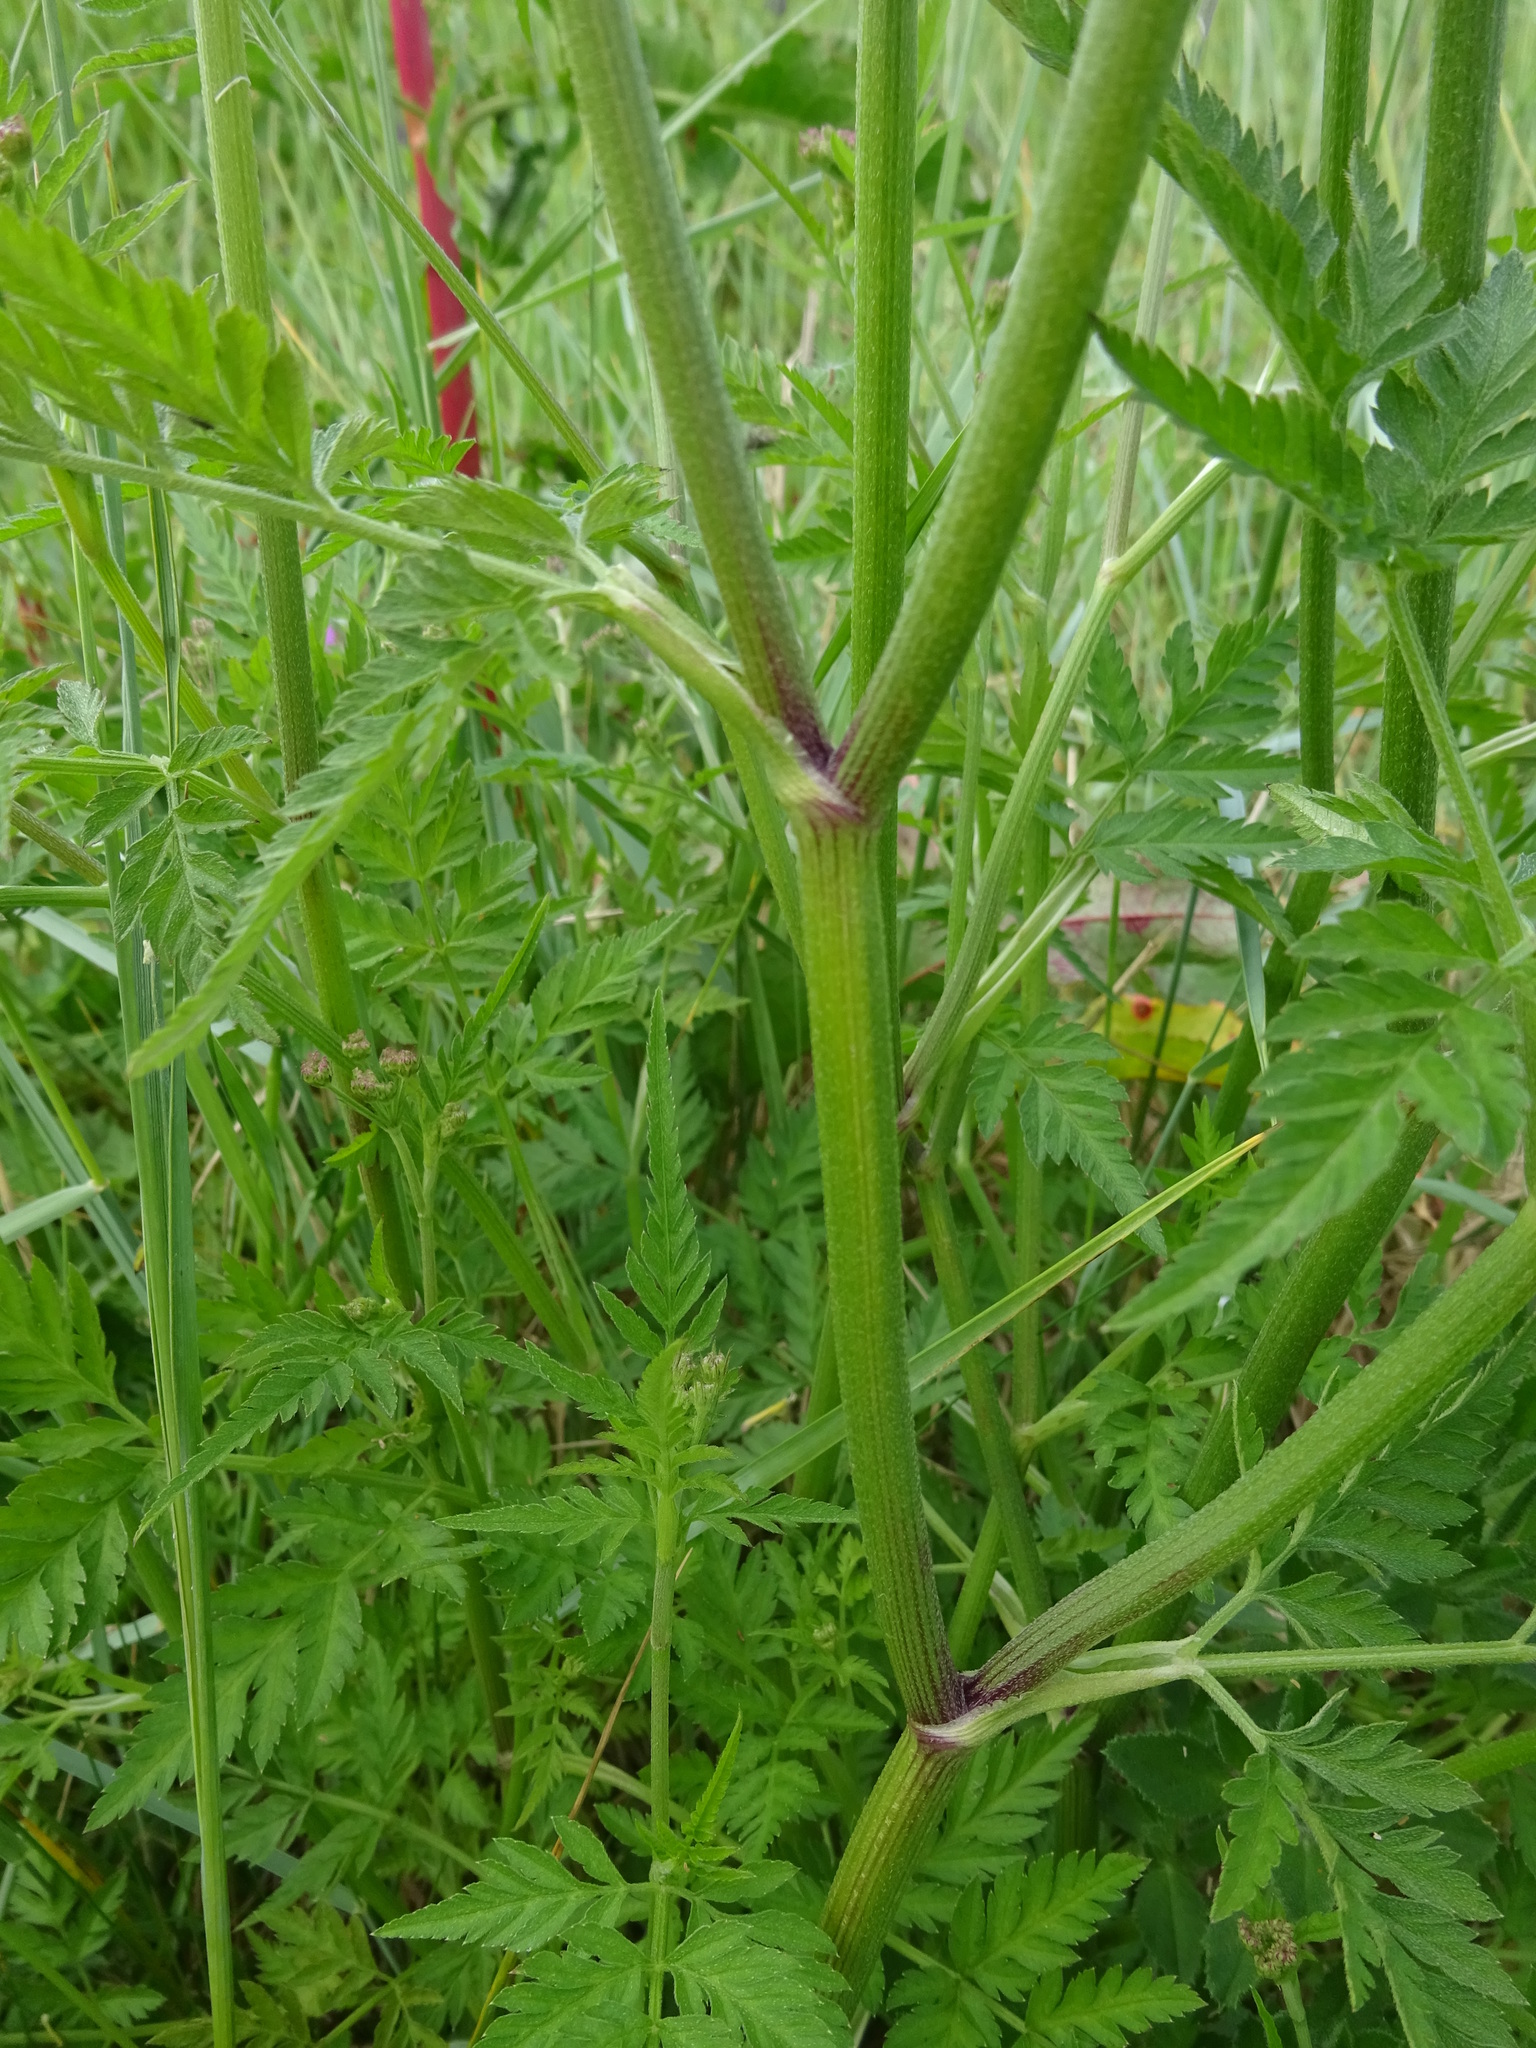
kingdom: Plantae
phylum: Tracheophyta
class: Magnoliopsida
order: Apiales
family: Apiaceae
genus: Torilis
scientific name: Torilis japonica
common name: Upright hedge-parsley
